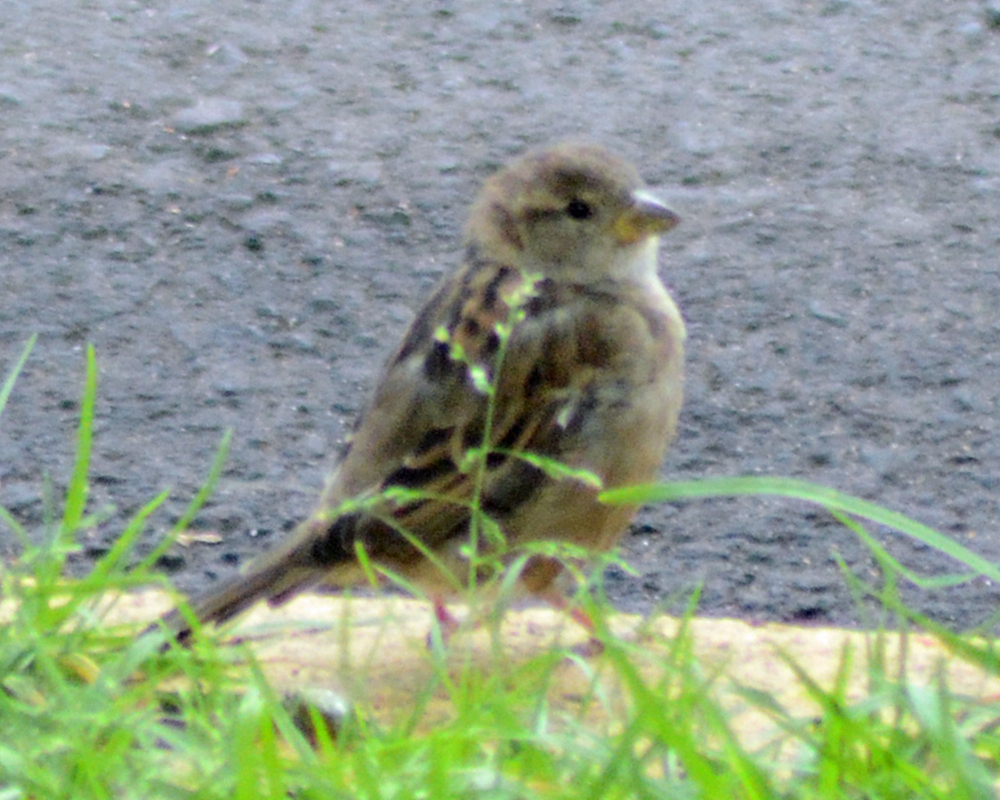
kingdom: Animalia
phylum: Chordata
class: Aves
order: Passeriformes
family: Passeridae
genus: Passer
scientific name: Passer domesticus
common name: House sparrow
